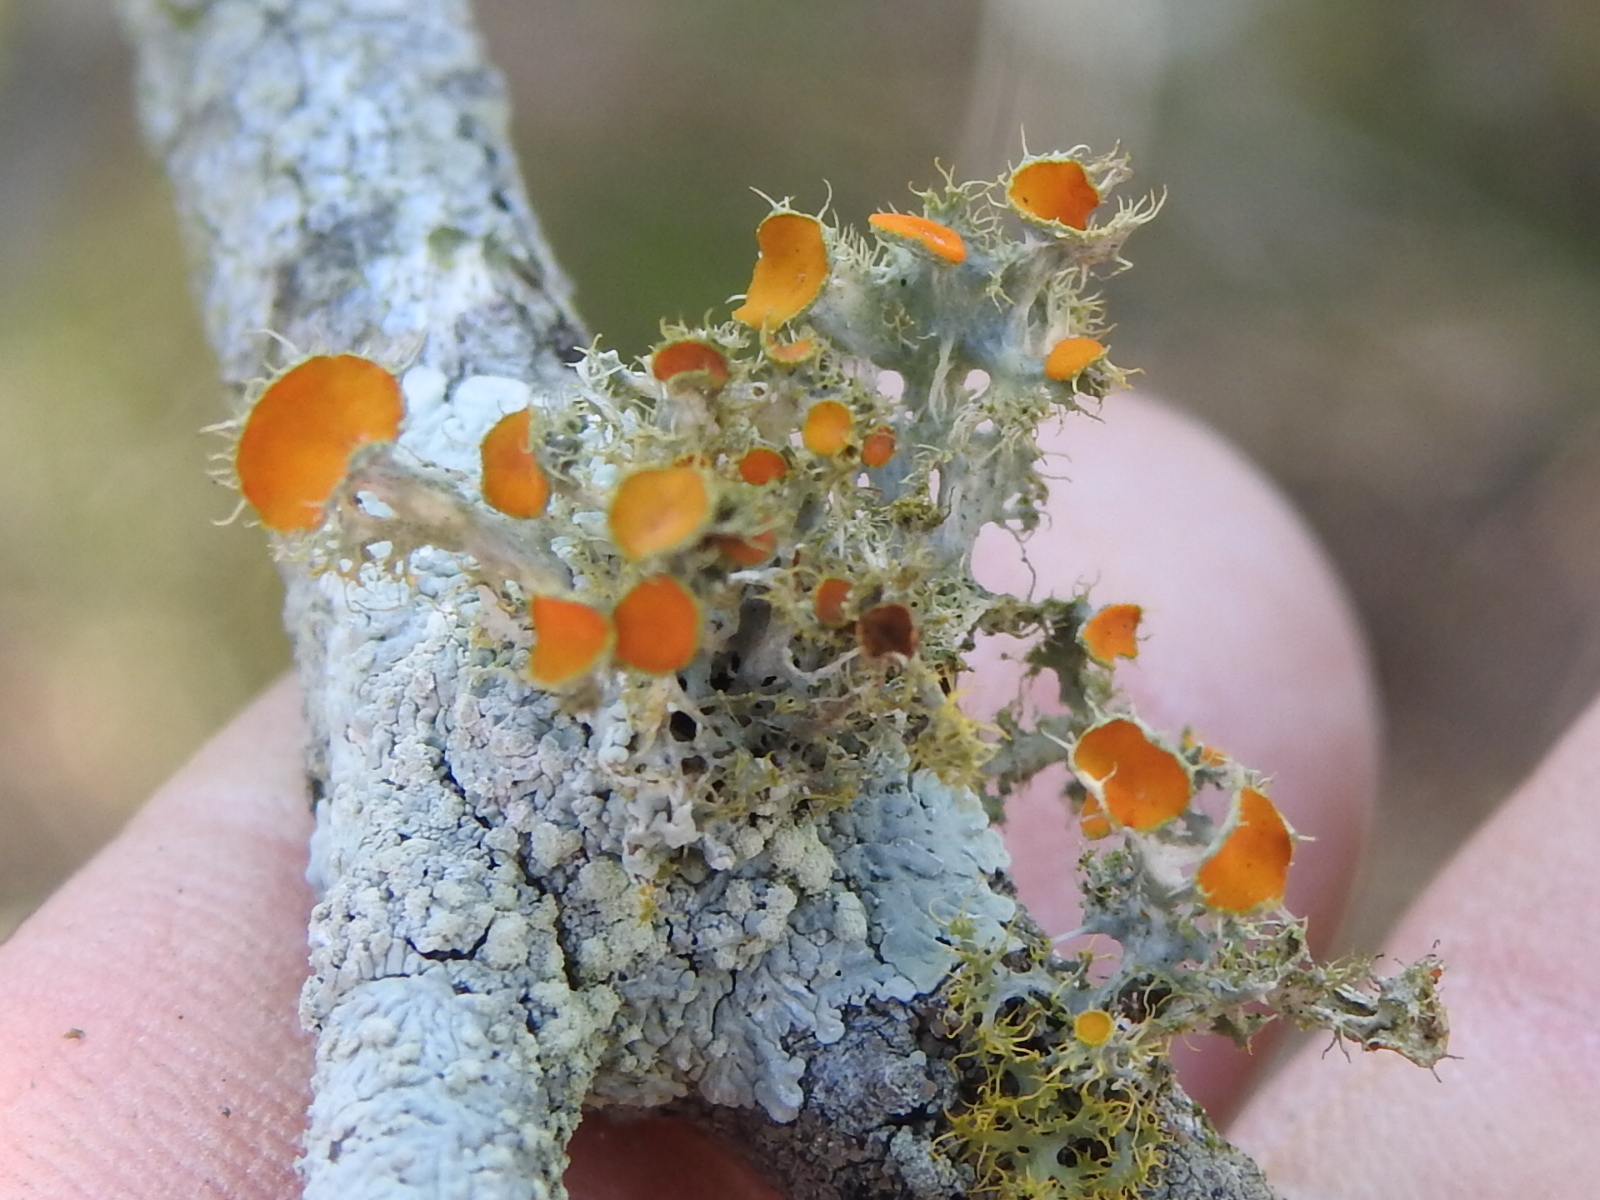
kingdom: Fungi
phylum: Ascomycota
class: Lecanoromycetes
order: Teloschistales
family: Teloschistaceae
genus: Niorma
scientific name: Niorma chrysophthalma
